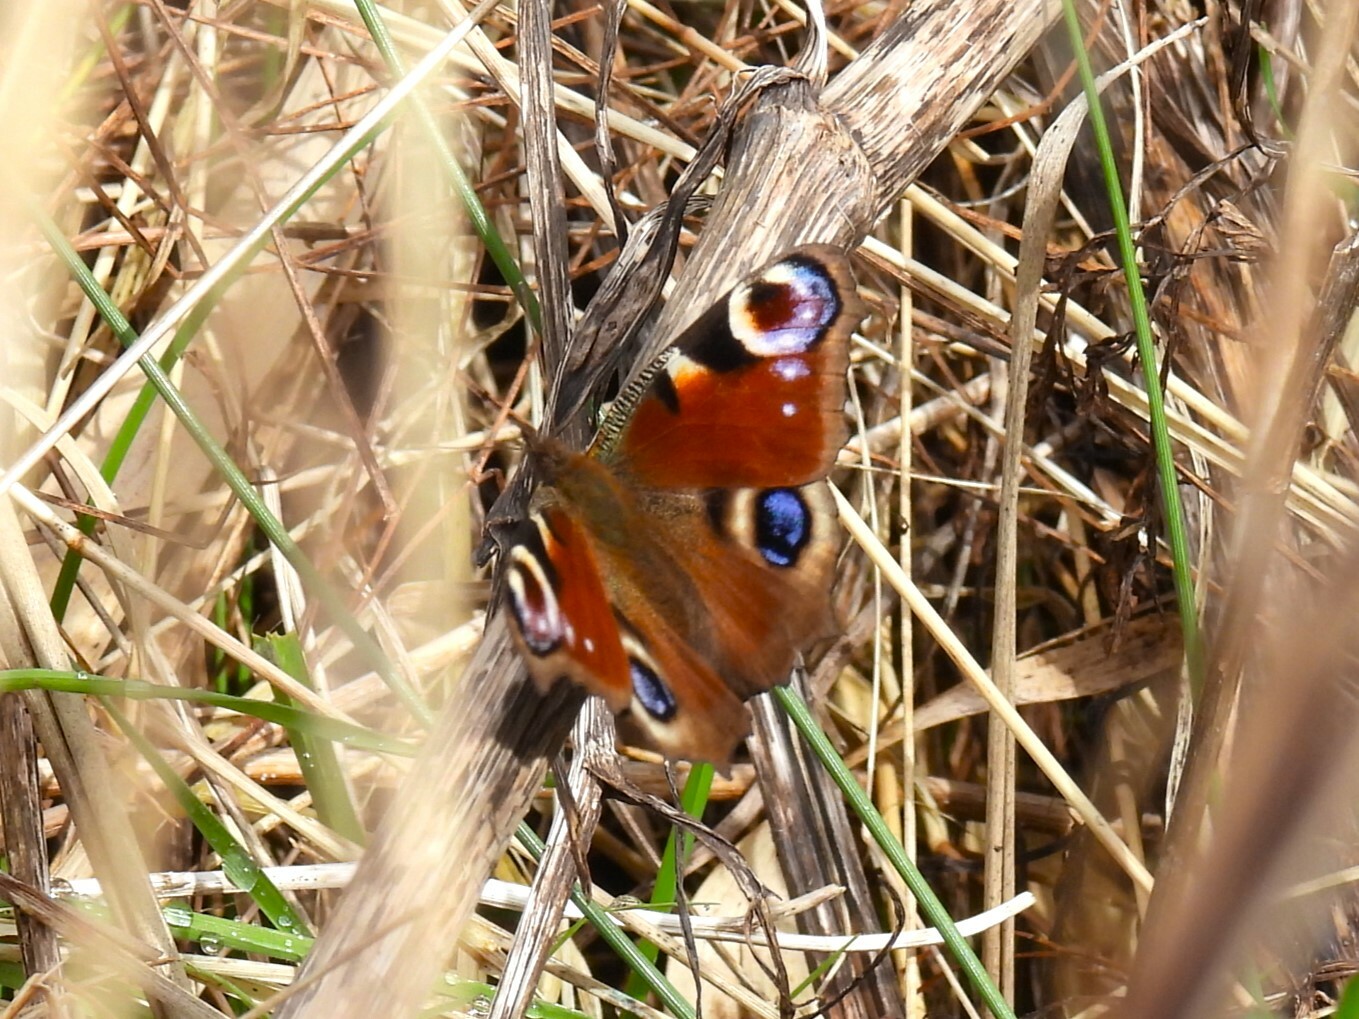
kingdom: Animalia
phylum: Arthropoda
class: Insecta
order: Lepidoptera
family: Nymphalidae
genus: Aglais
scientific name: Aglais io
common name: Peacock
